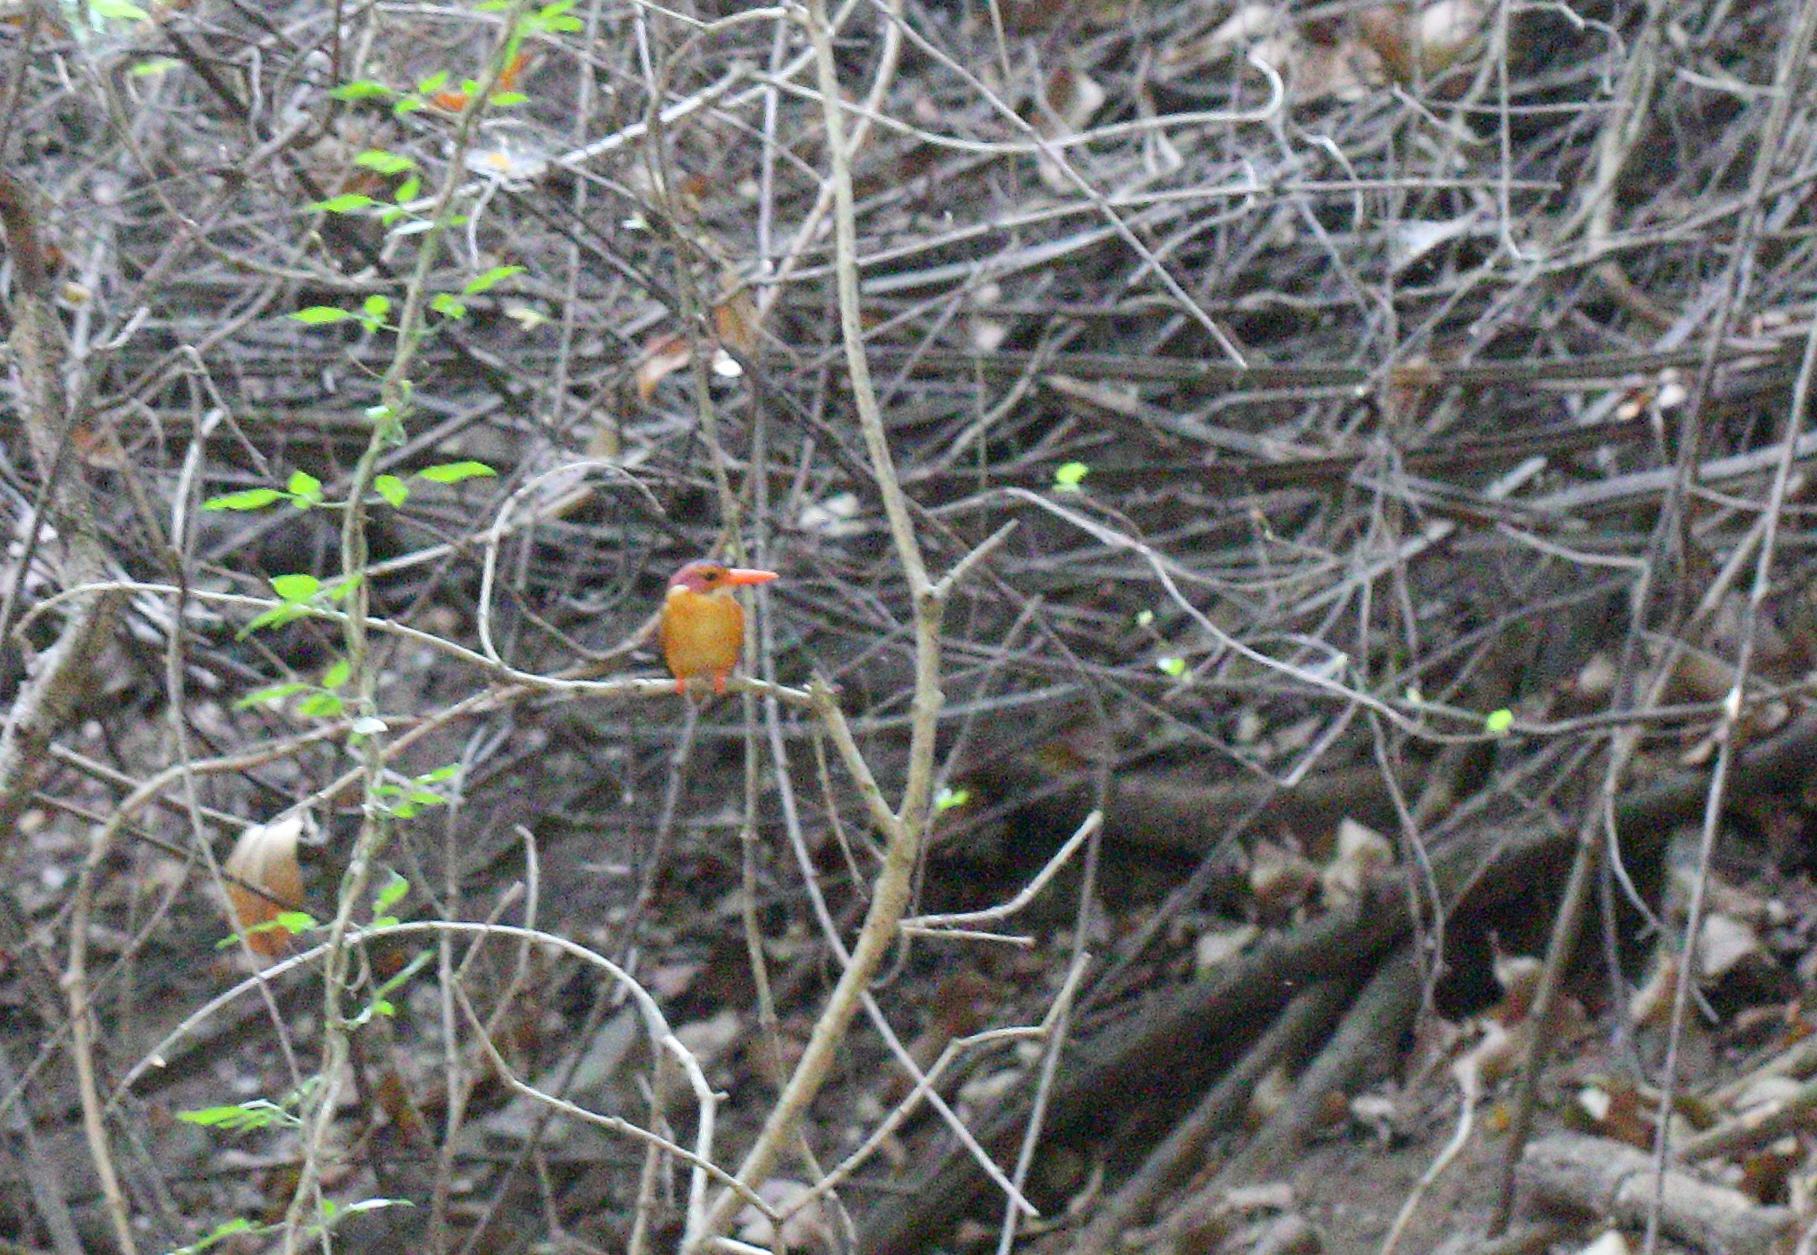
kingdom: Animalia
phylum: Chordata
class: Aves
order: Coraciiformes
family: Alcedinidae
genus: Ispidina
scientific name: Ispidina picta
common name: African pygmy-kingfisher
